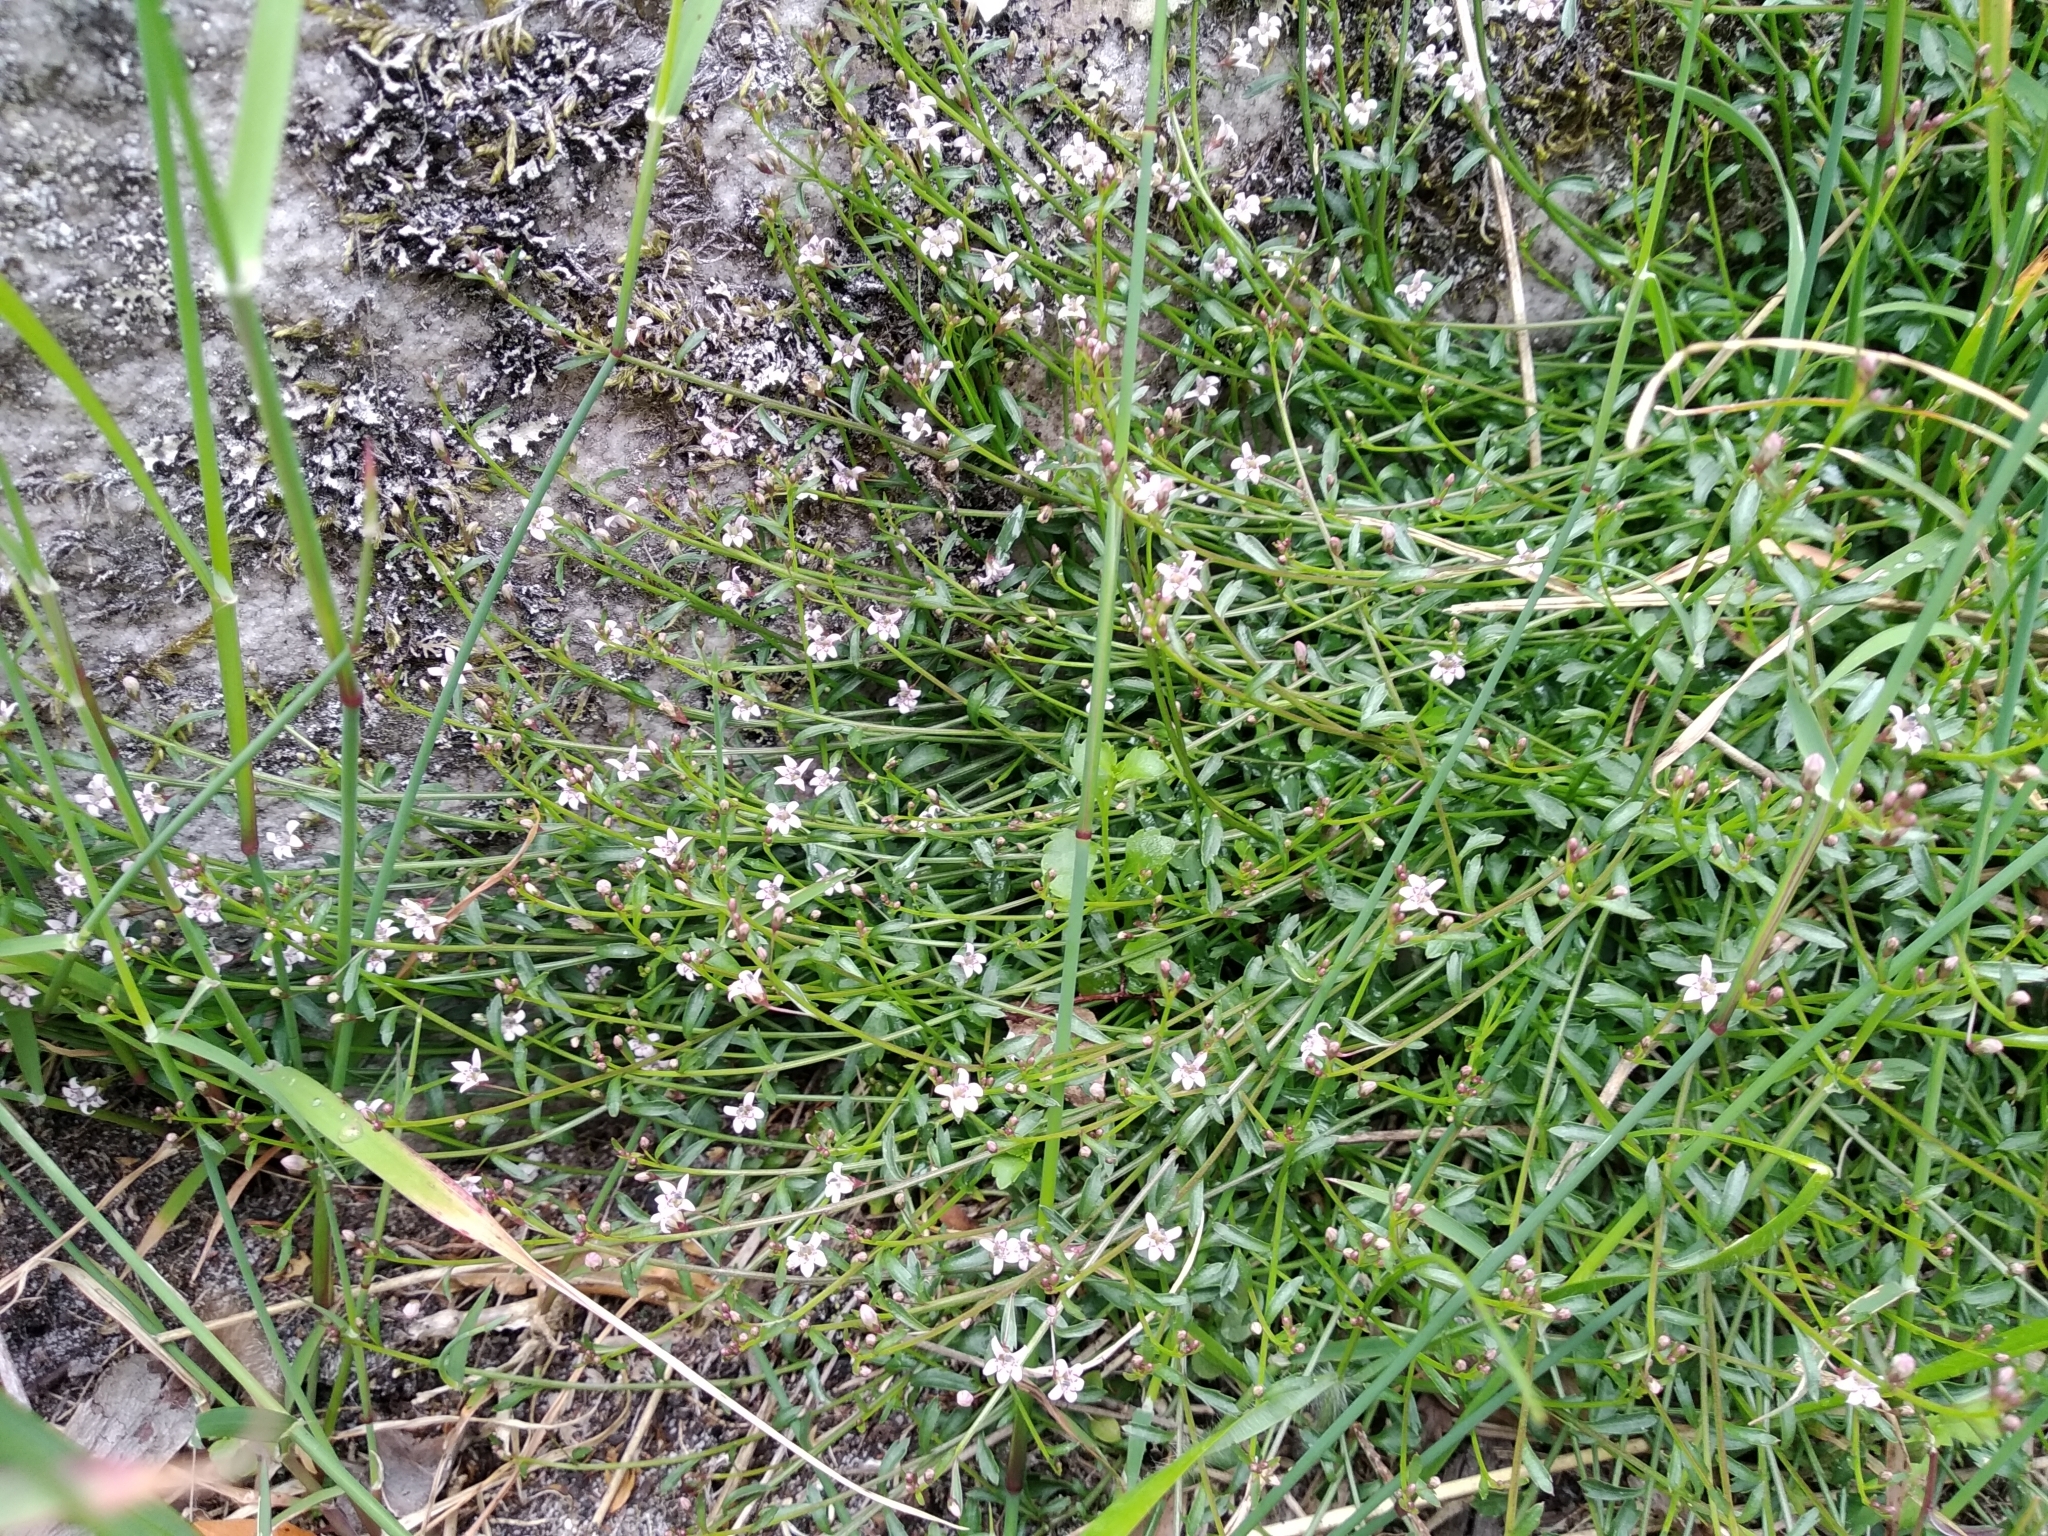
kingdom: Plantae
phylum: Tracheophyta
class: Magnoliopsida
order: Asterales
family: Campanulaceae
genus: Lobelia
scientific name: Lobelia eckloniana
